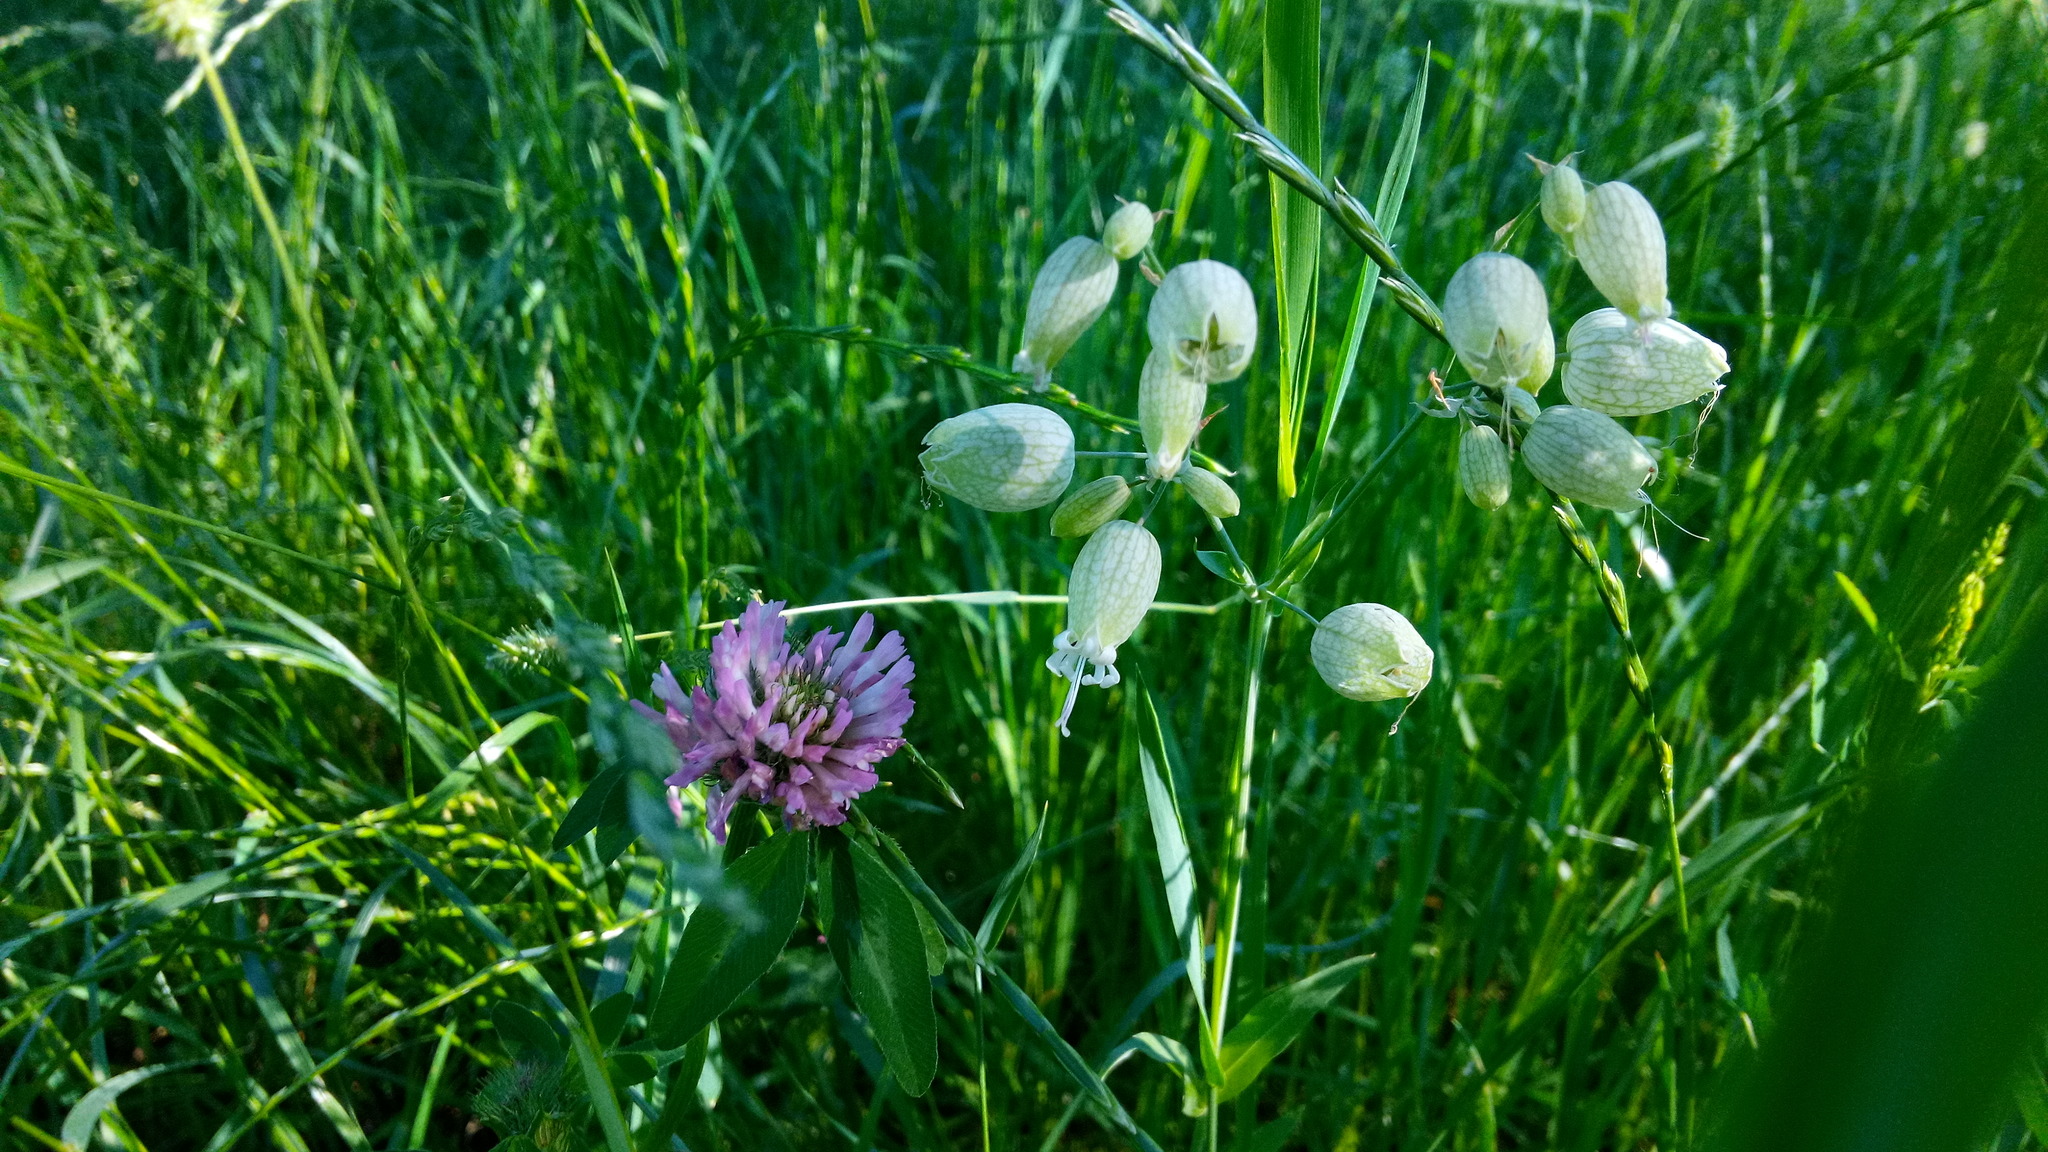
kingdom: Plantae
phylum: Tracheophyta
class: Magnoliopsida
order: Caryophyllales
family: Caryophyllaceae
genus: Silene
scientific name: Silene vulgaris
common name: Bladder campion
